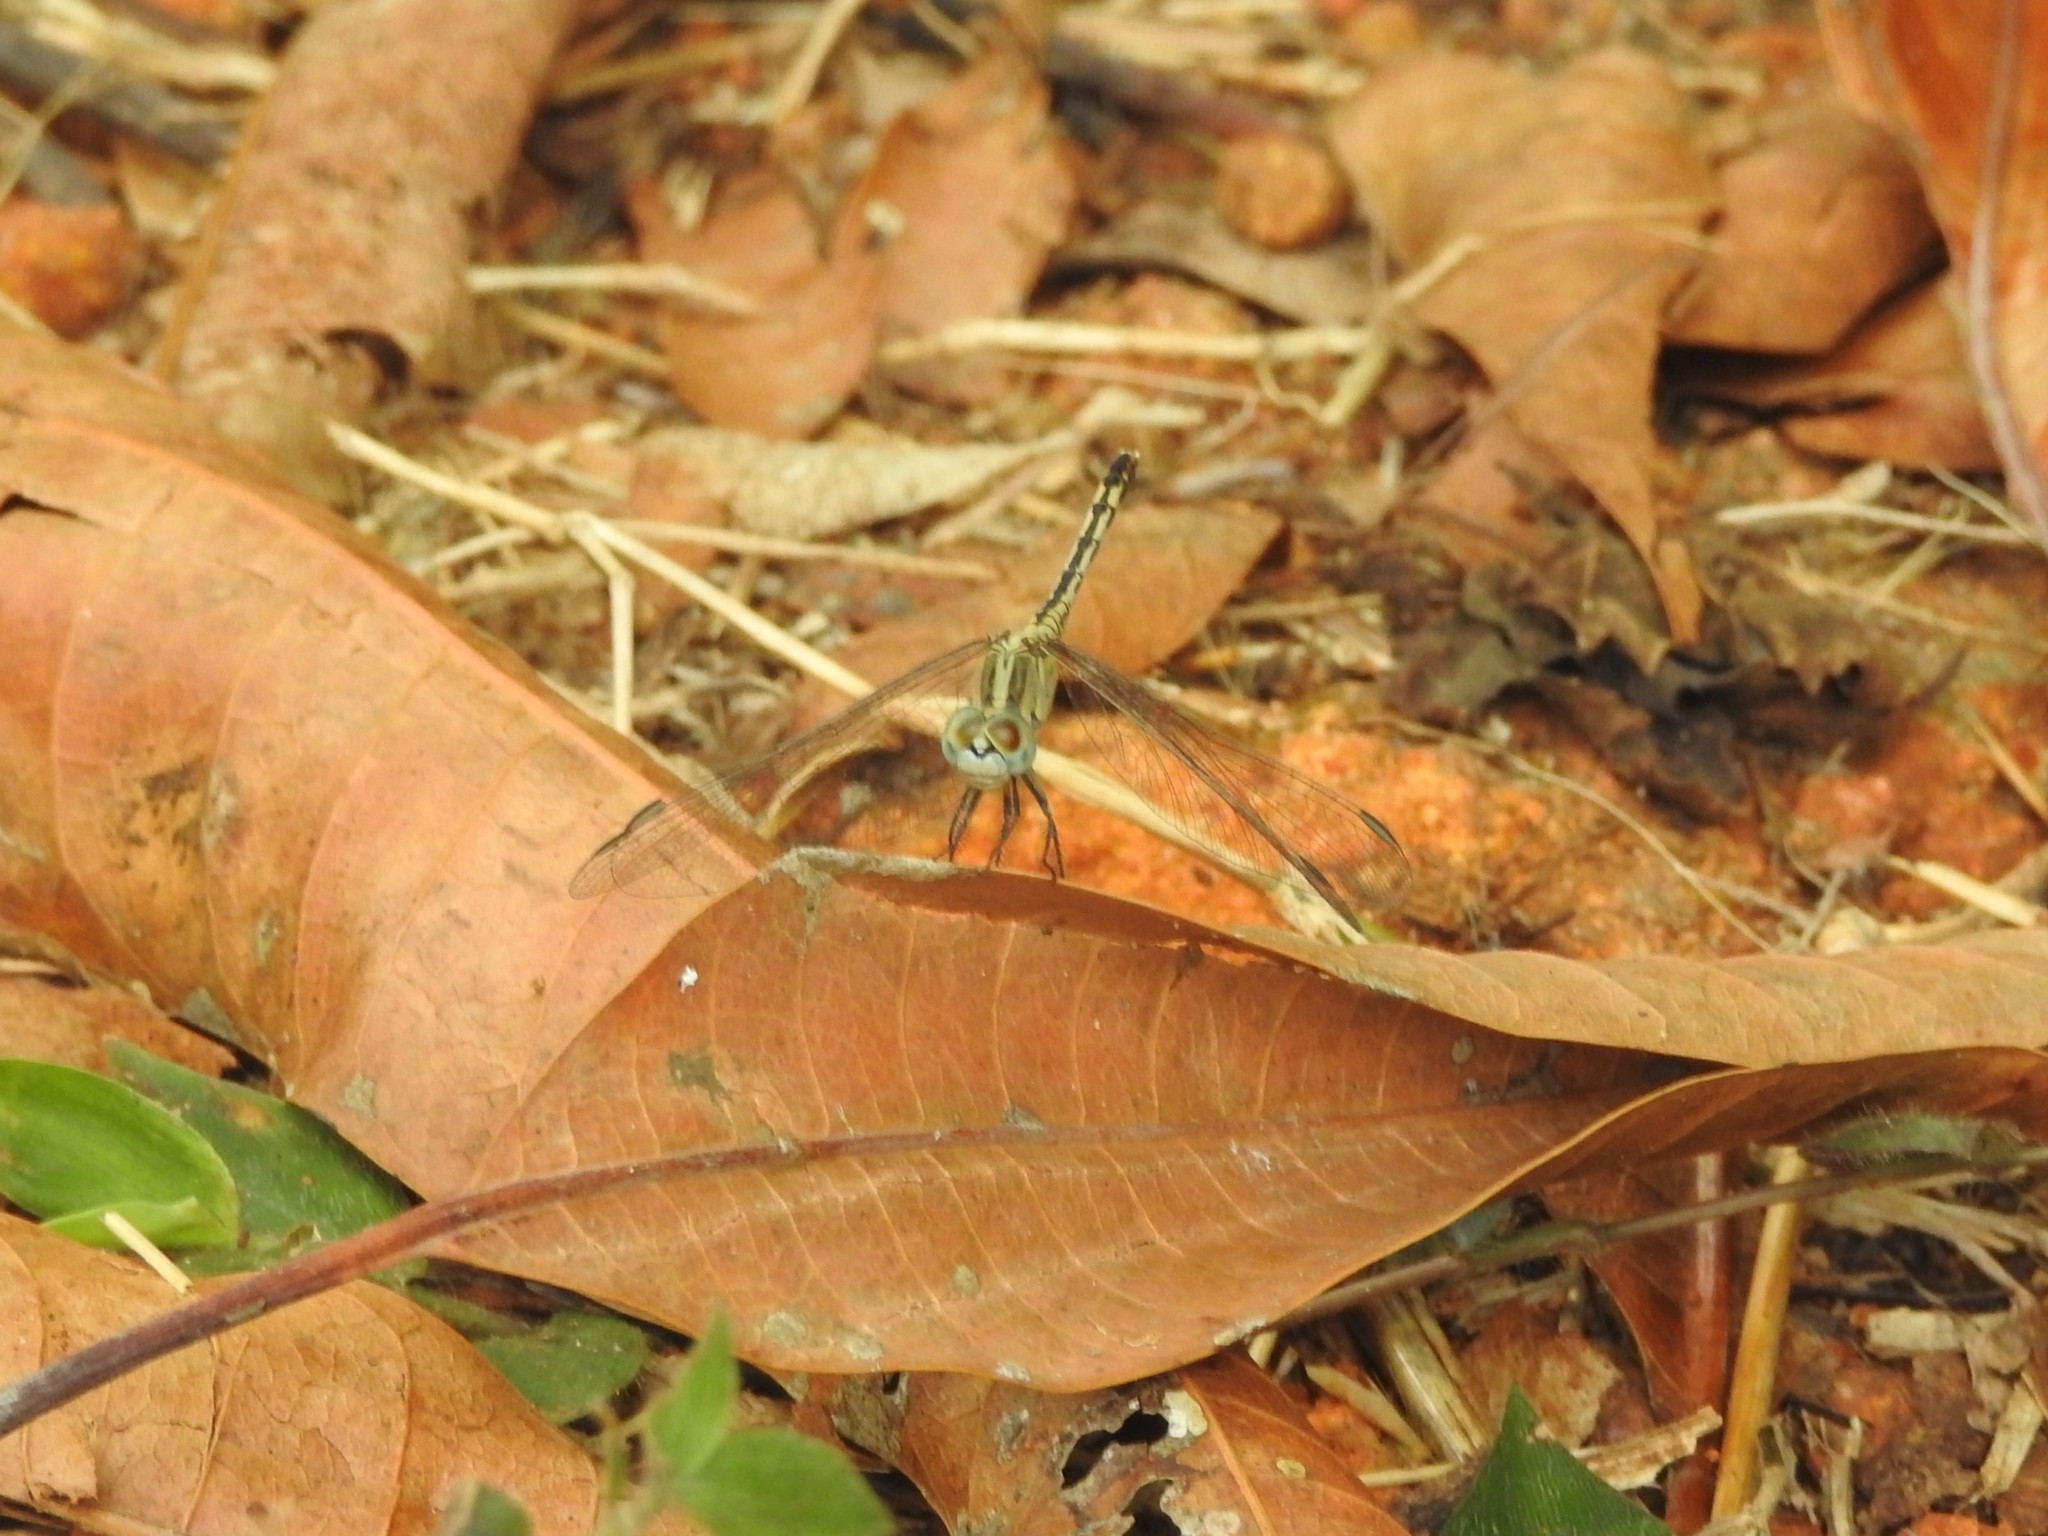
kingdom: Animalia
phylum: Arthropoda
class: Insecta
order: Odonata
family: Libellulidae
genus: Diplacodes
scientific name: Diplacodes trivialis
